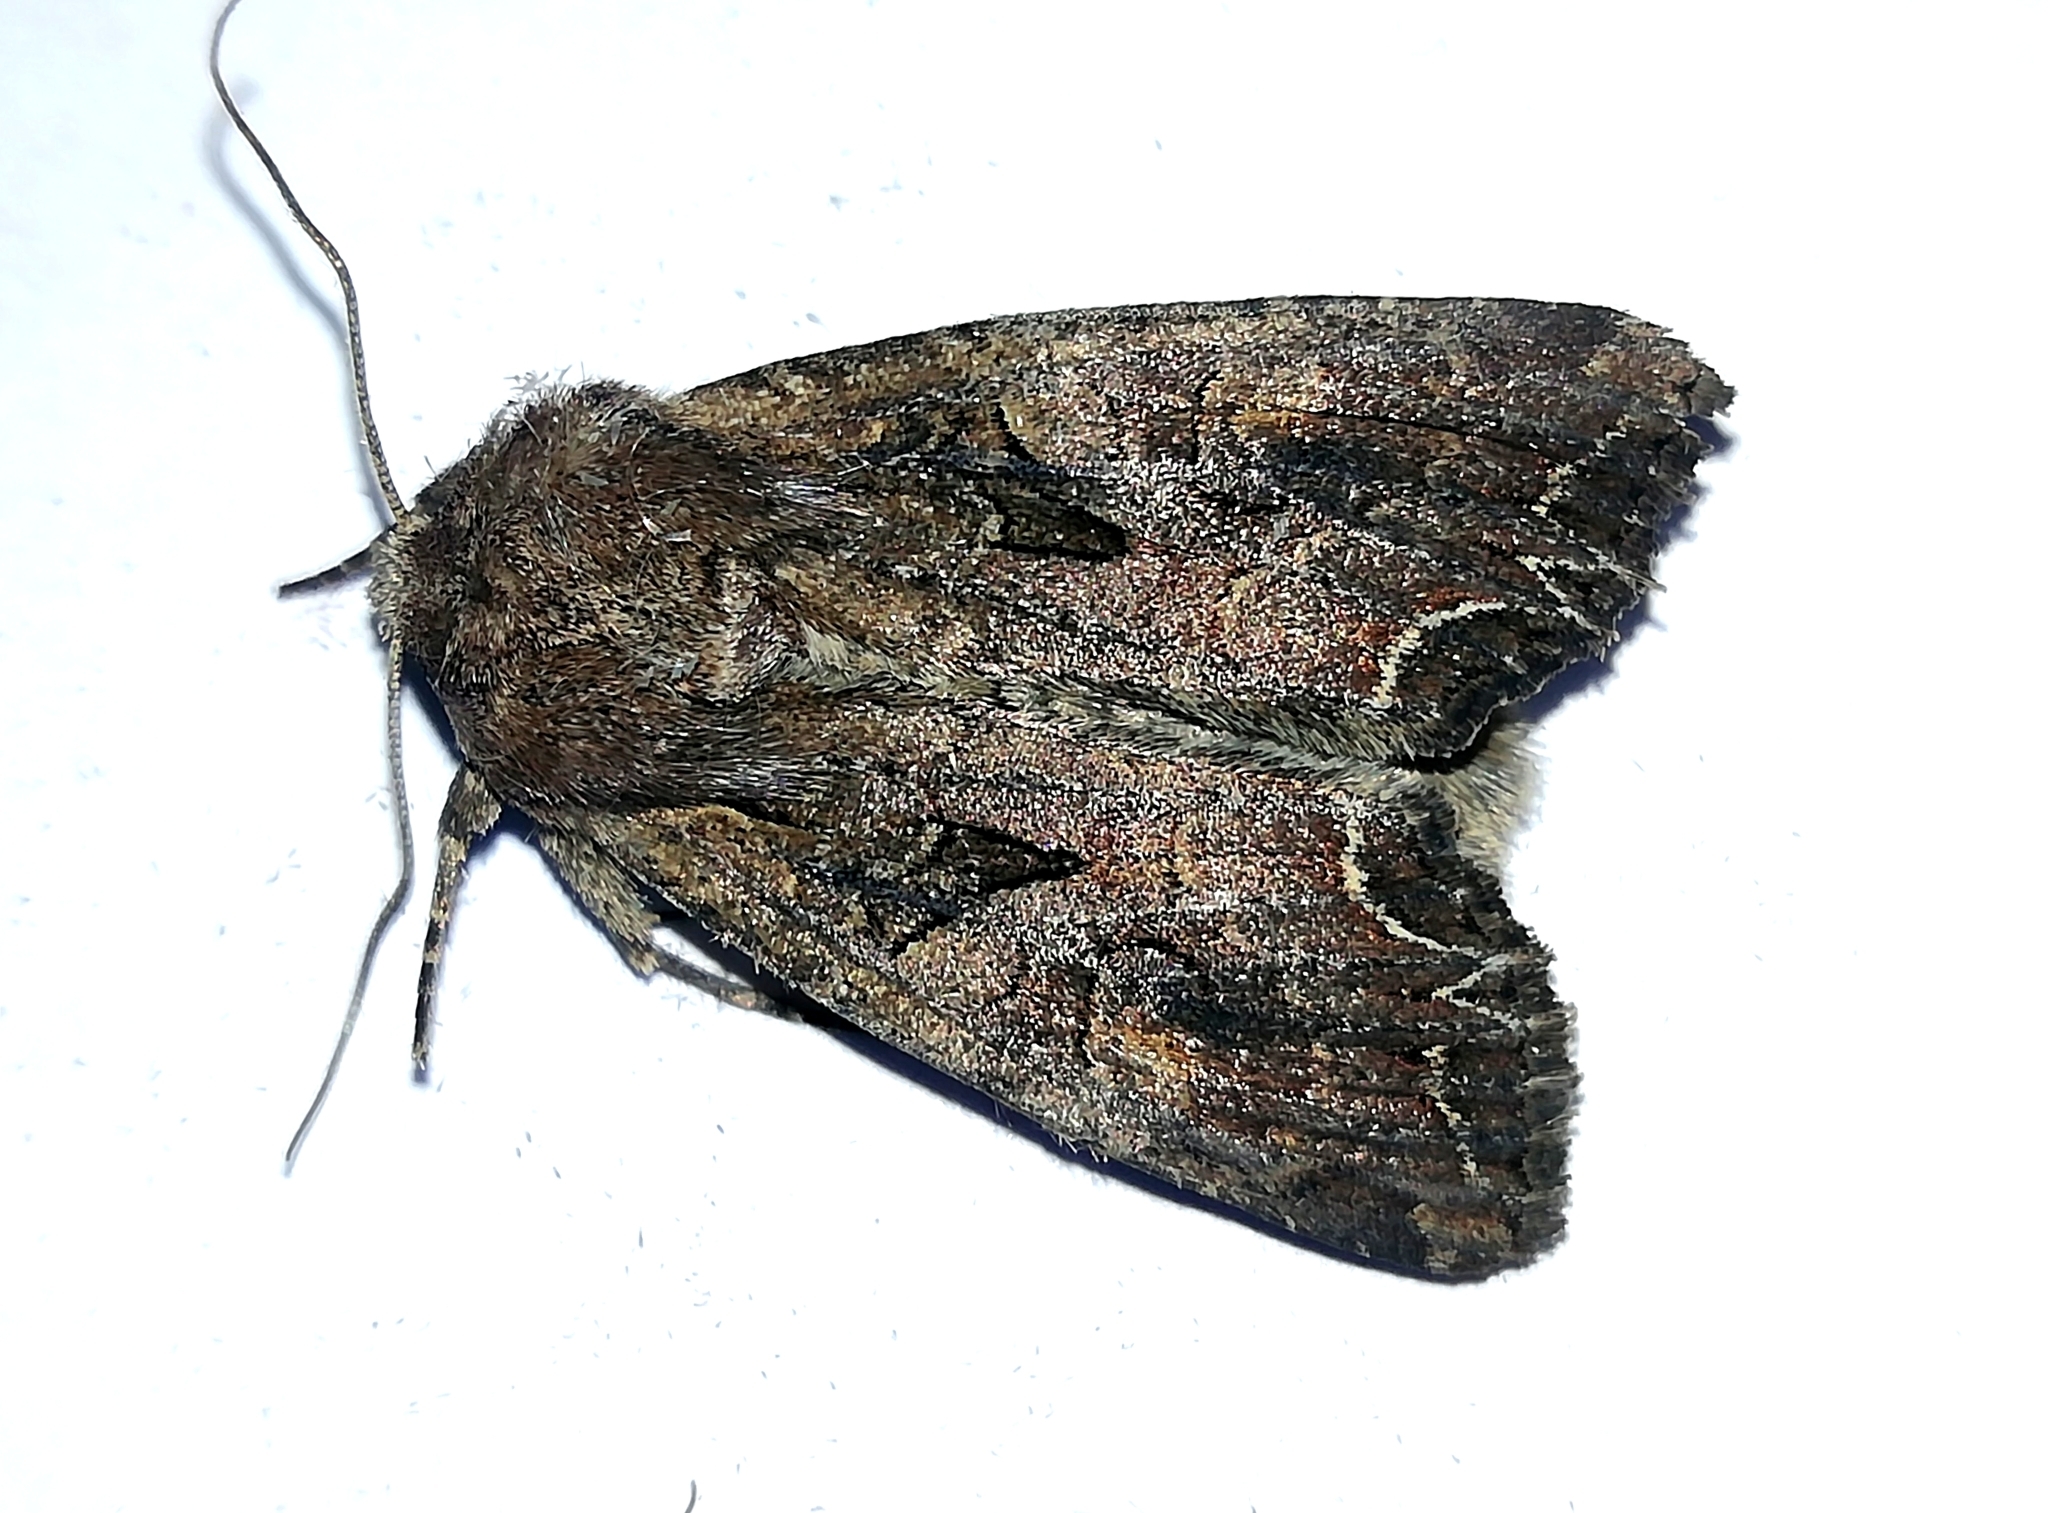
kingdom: Animalia
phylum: Arthropoda
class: Insecta
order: Lepidoptera
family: Noctuidae
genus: Lacanobia
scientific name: Lacanobia suasa
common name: Dog's tooth
